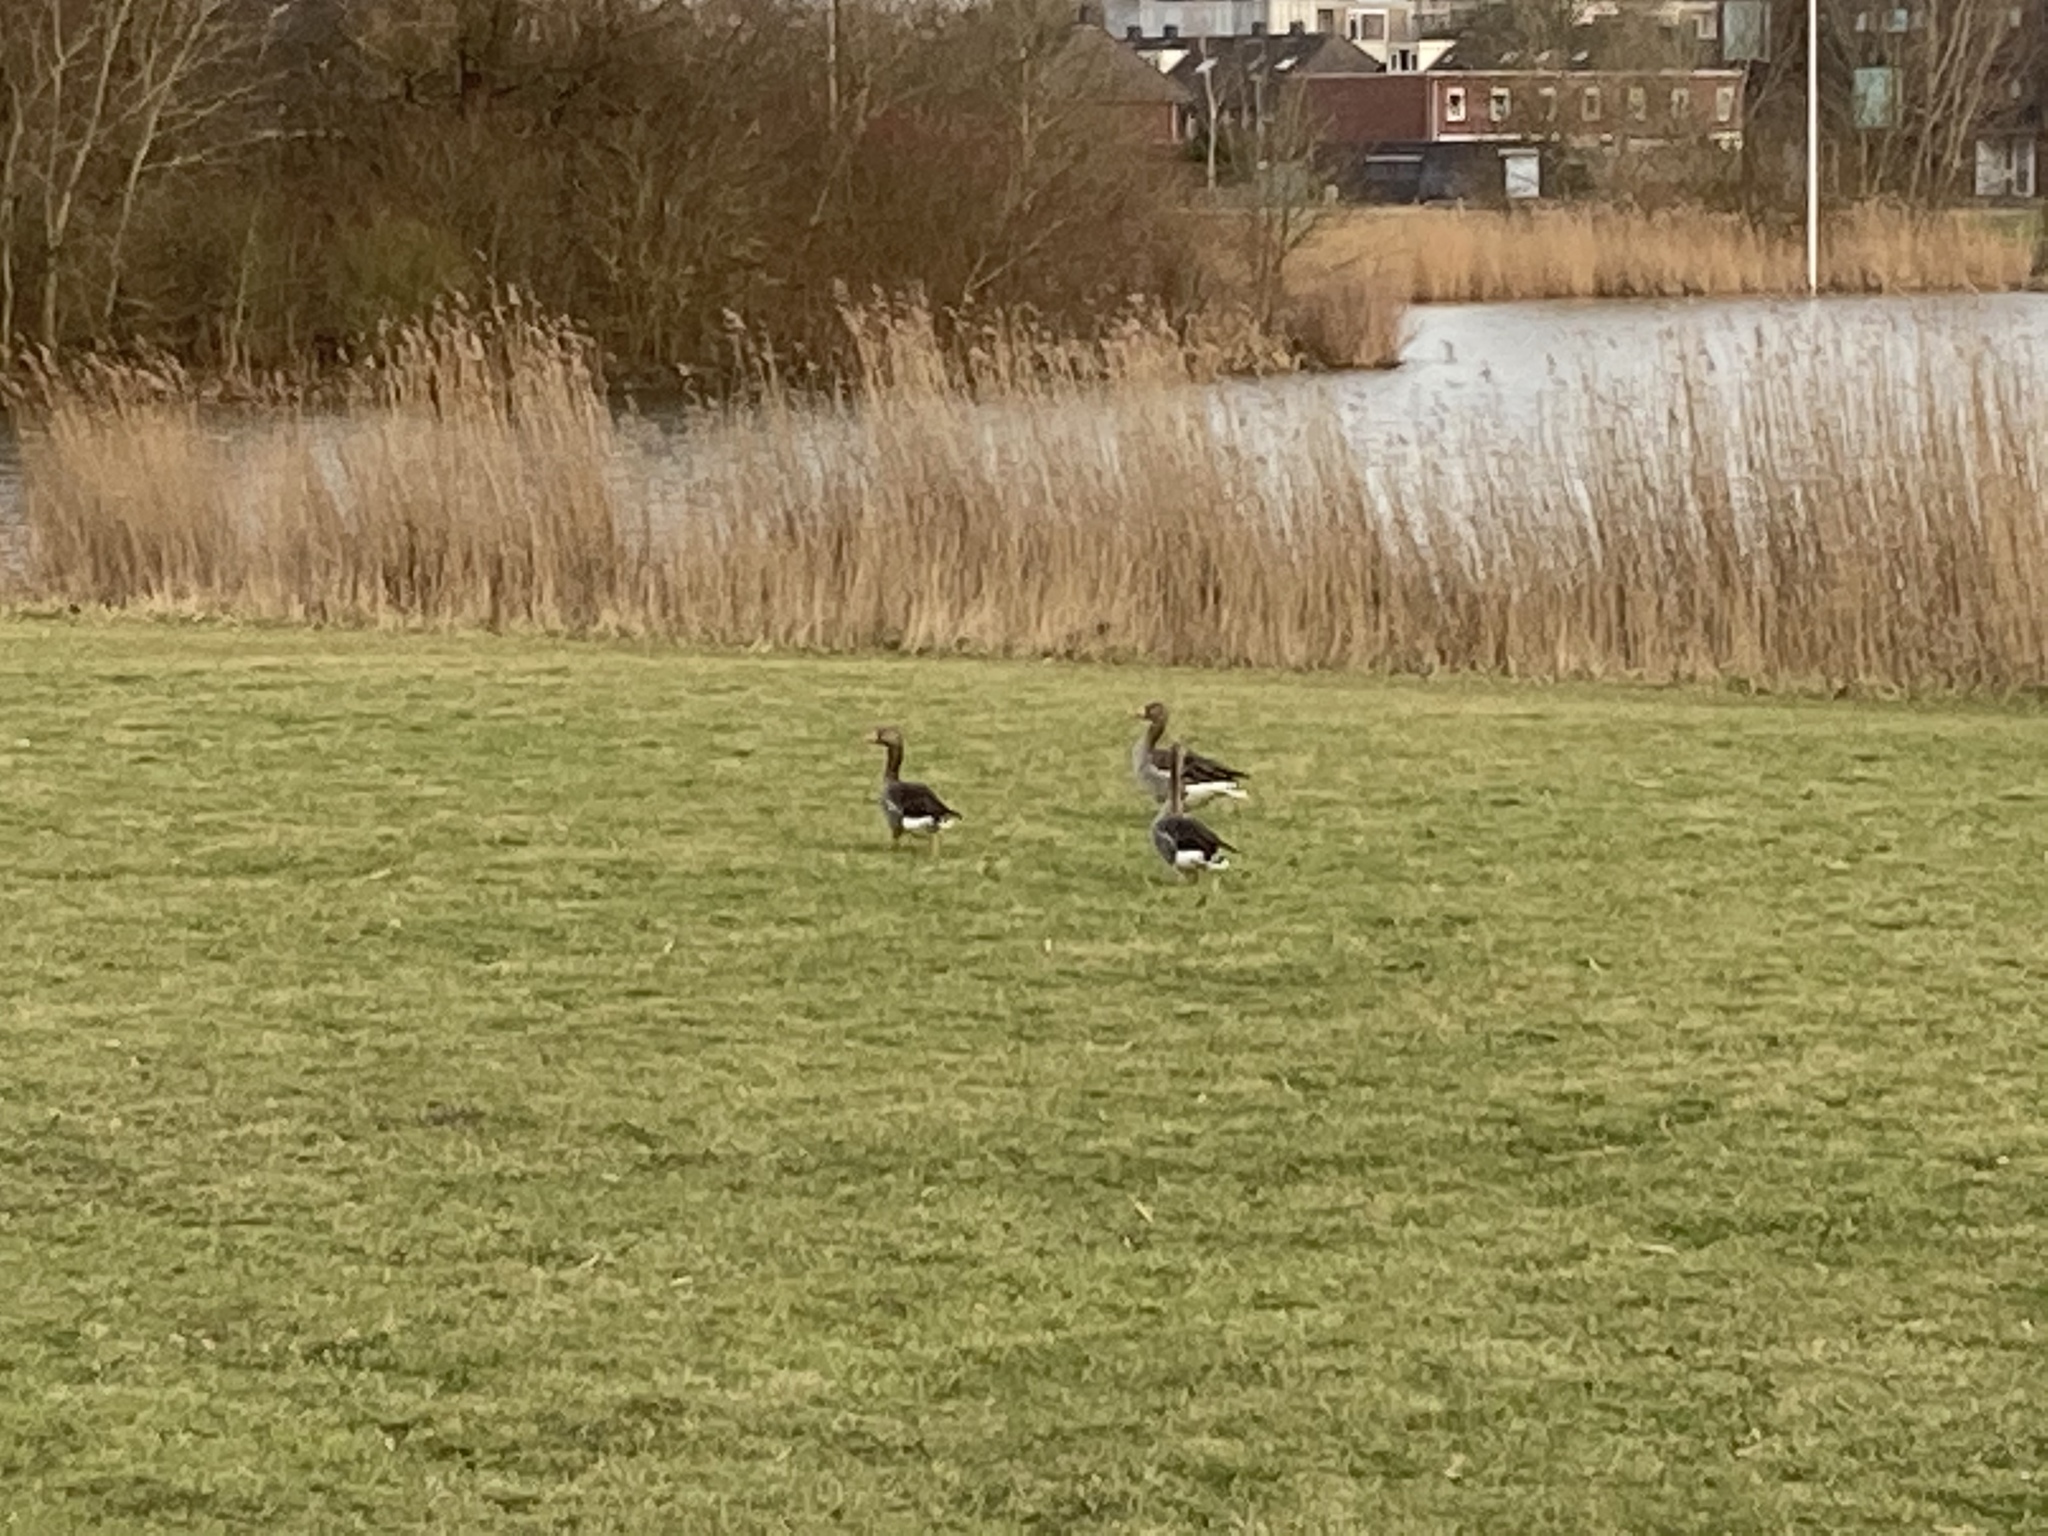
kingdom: Animalia
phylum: Chordata
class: Aves
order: Anseriformes
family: Anatidae
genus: Anser
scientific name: Anser albifrons
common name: Greater white-fronted goose
